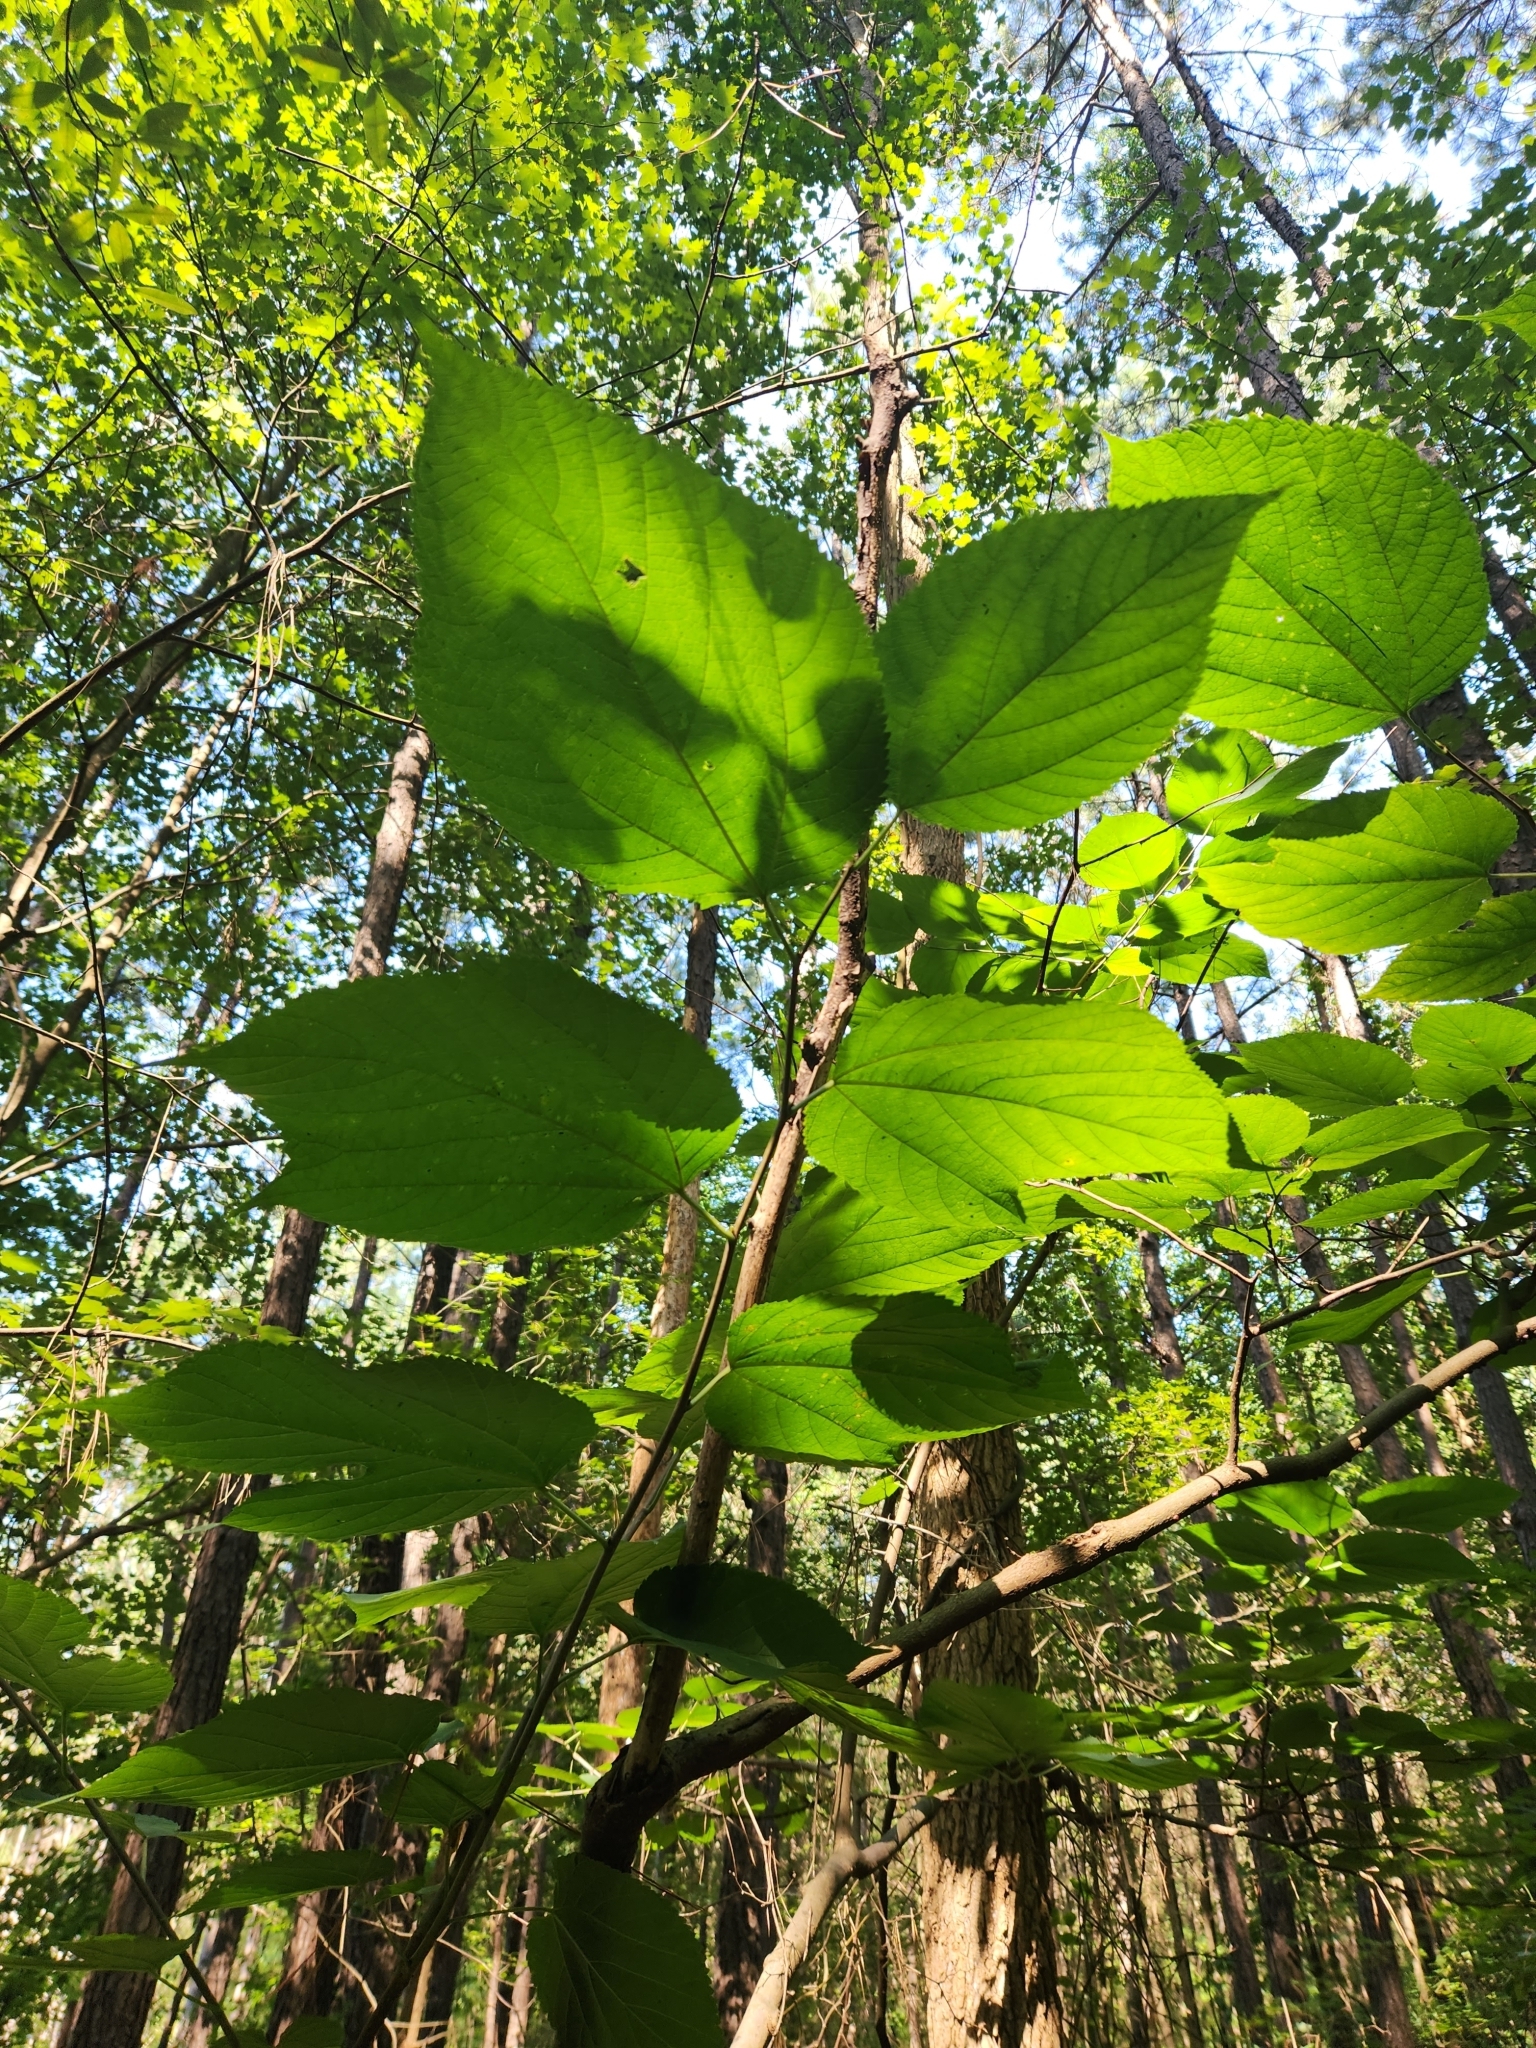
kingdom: Plantae
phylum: Tracheophyta
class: Magnoliopsida
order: Rosales
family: Moraceae
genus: Morus
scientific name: Morus rubra
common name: Red mulberry
